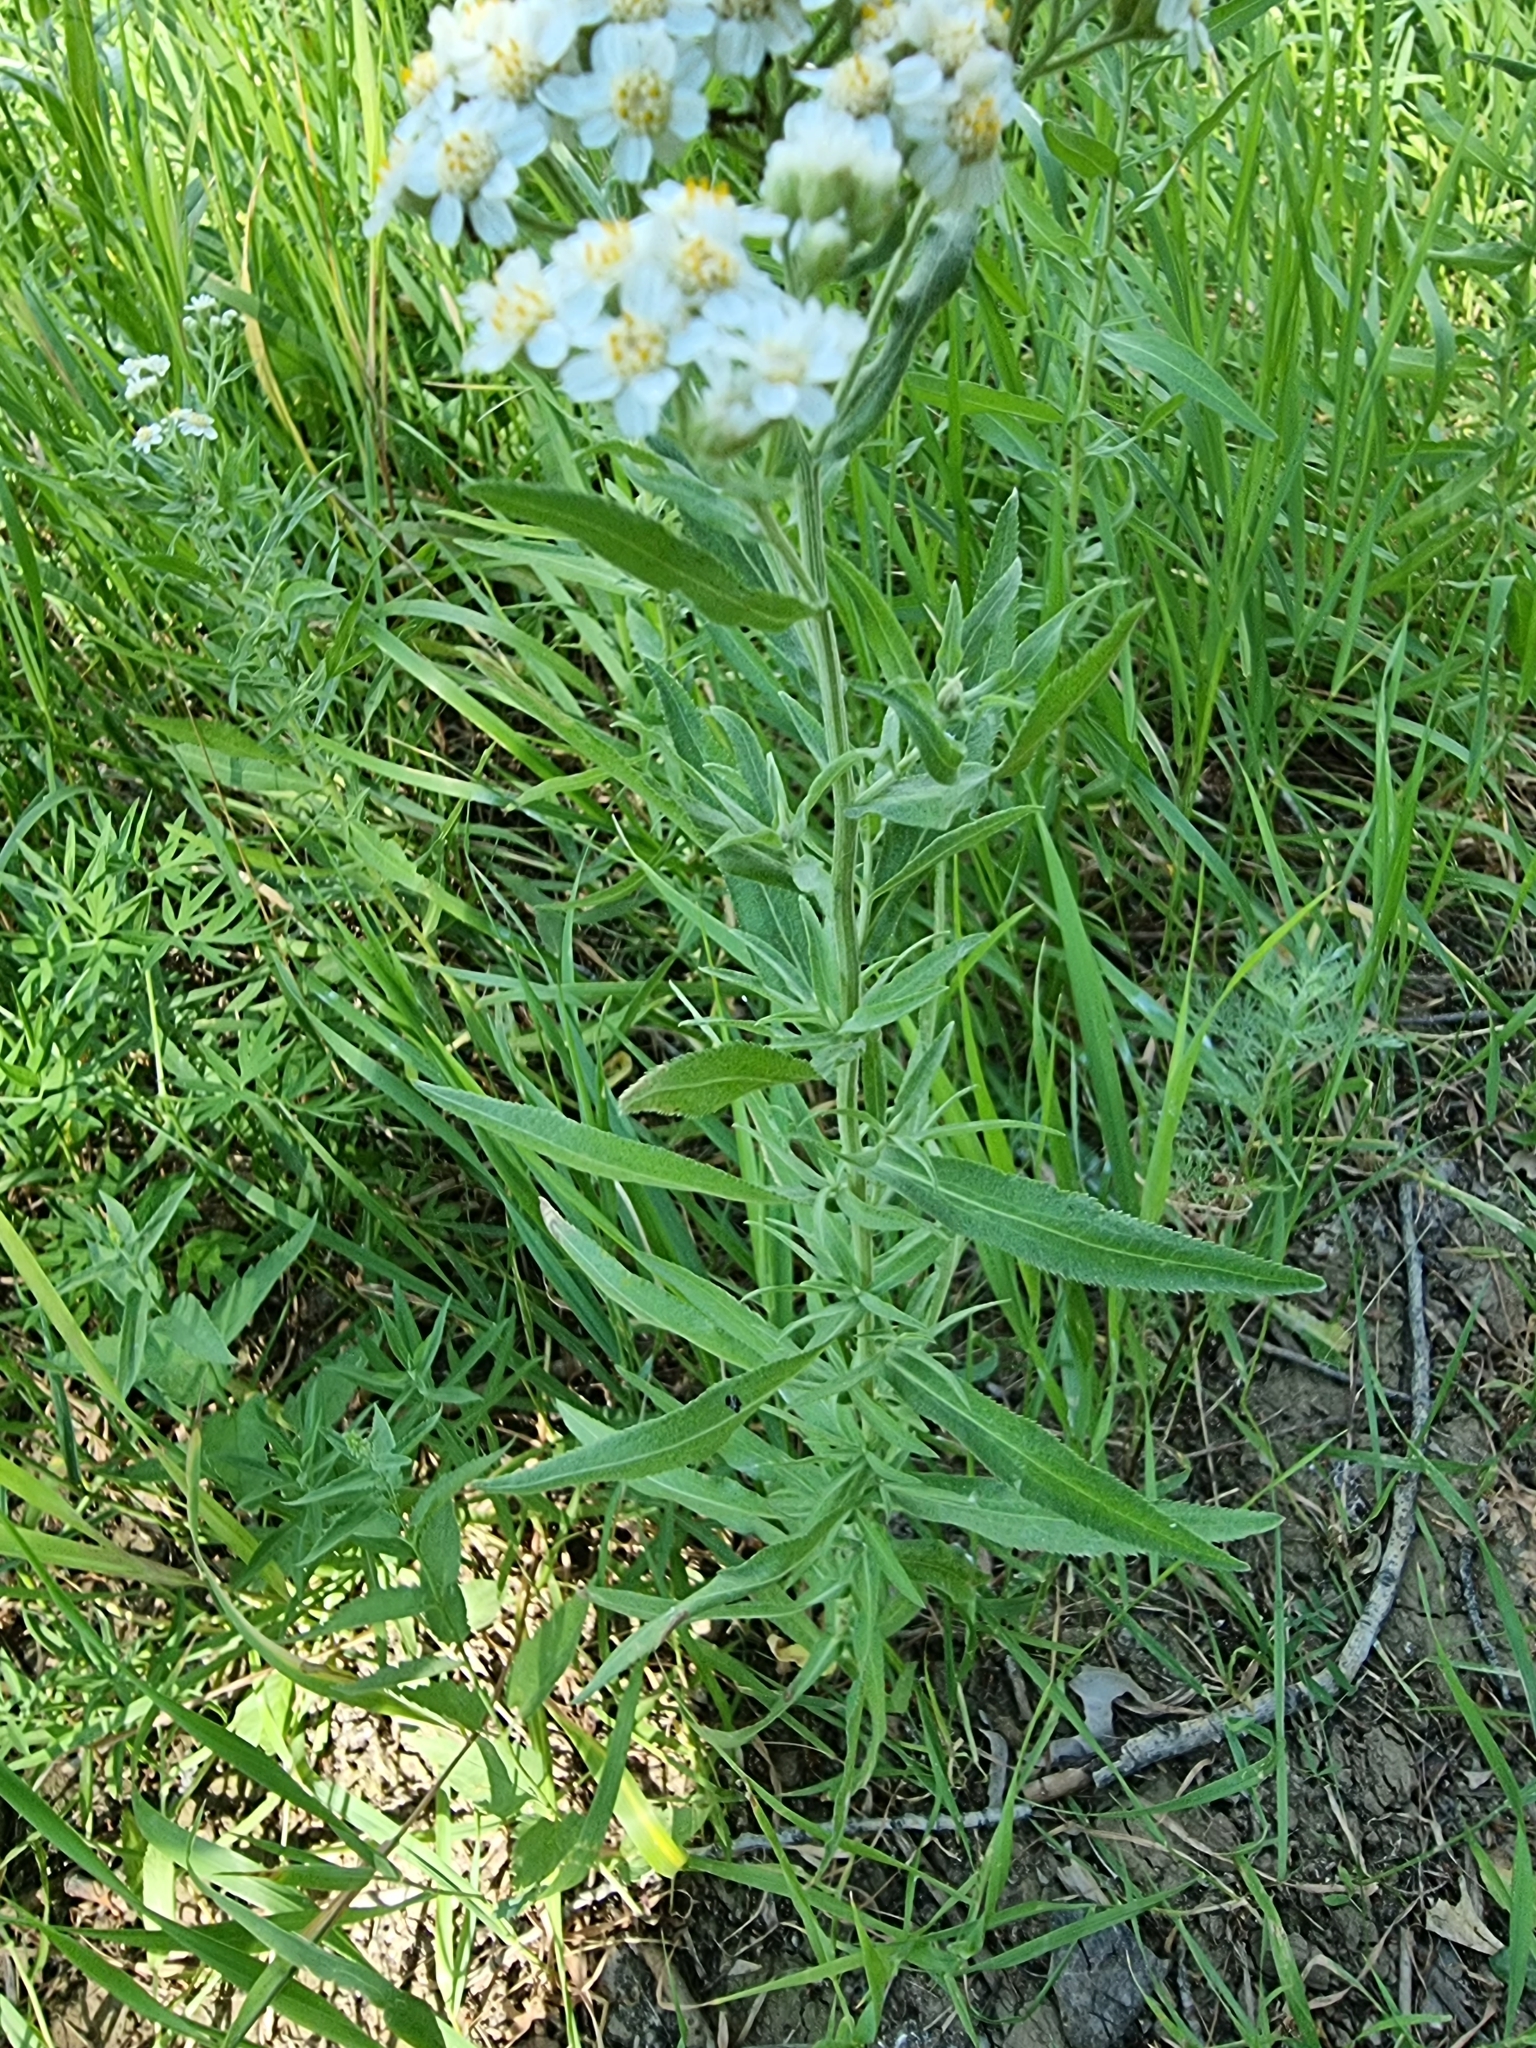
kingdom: Plantae
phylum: Tracheophyta
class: Magnoliopsida
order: Asterales
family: Asteraceae
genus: Achillea
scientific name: Achillea salicifolia
